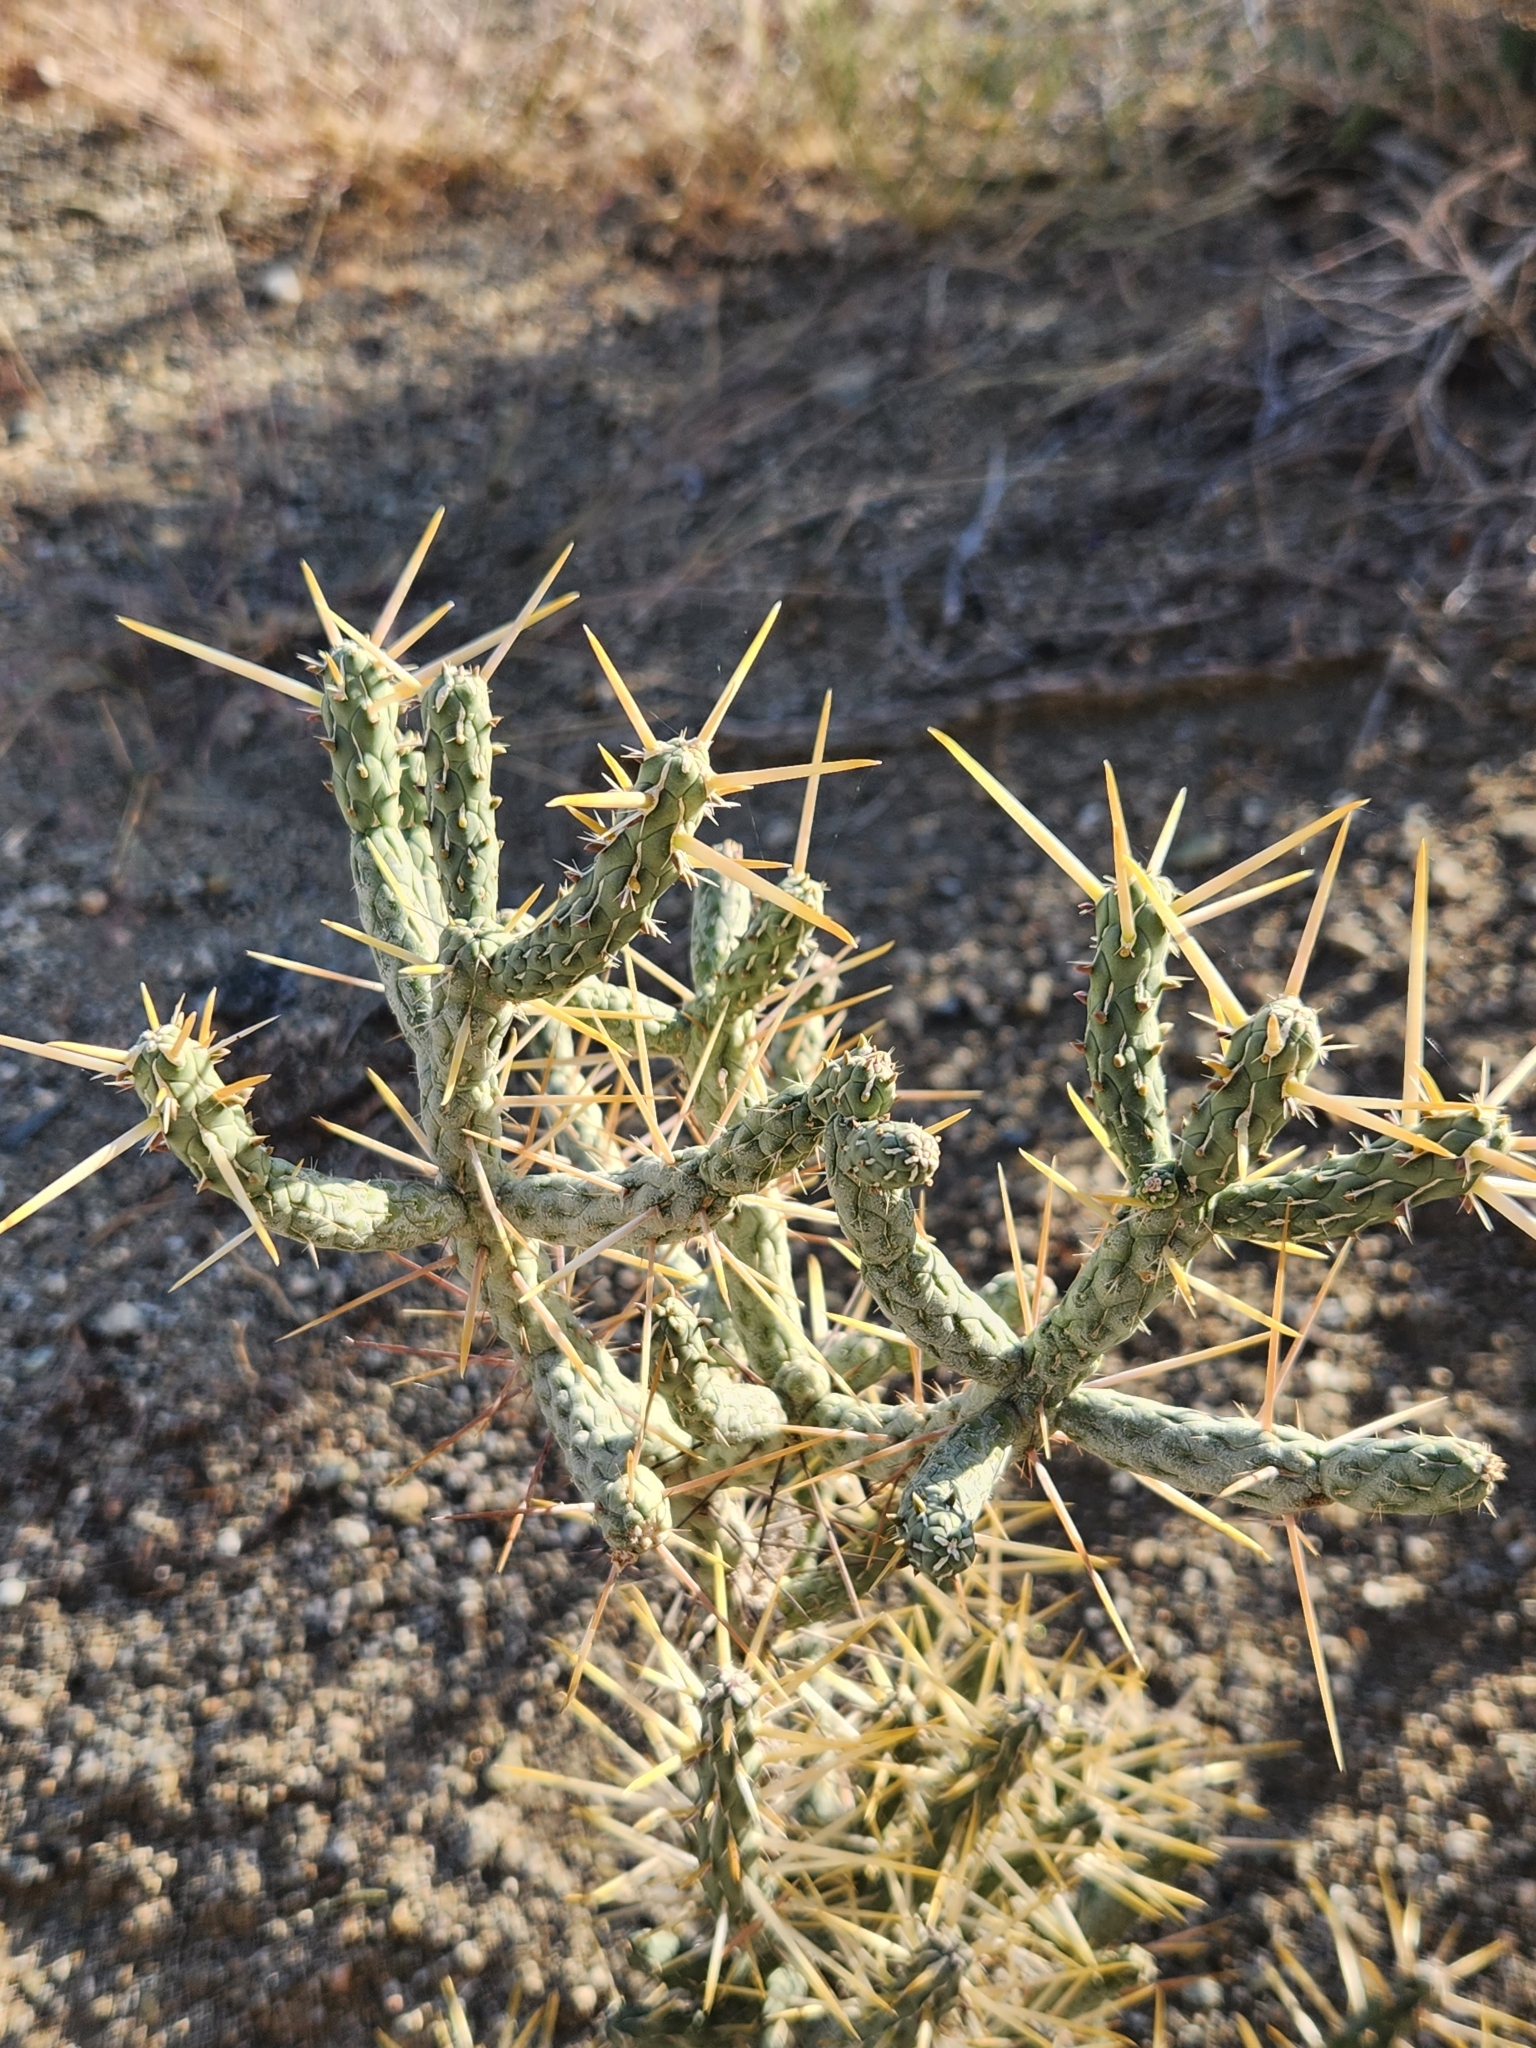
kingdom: Plantae
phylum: Tracheophyta
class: Magnoliopsida
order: Caryophyllales
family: Cactaceae
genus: Cylindropuntia
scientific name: Cylindropuntia ramosissima
